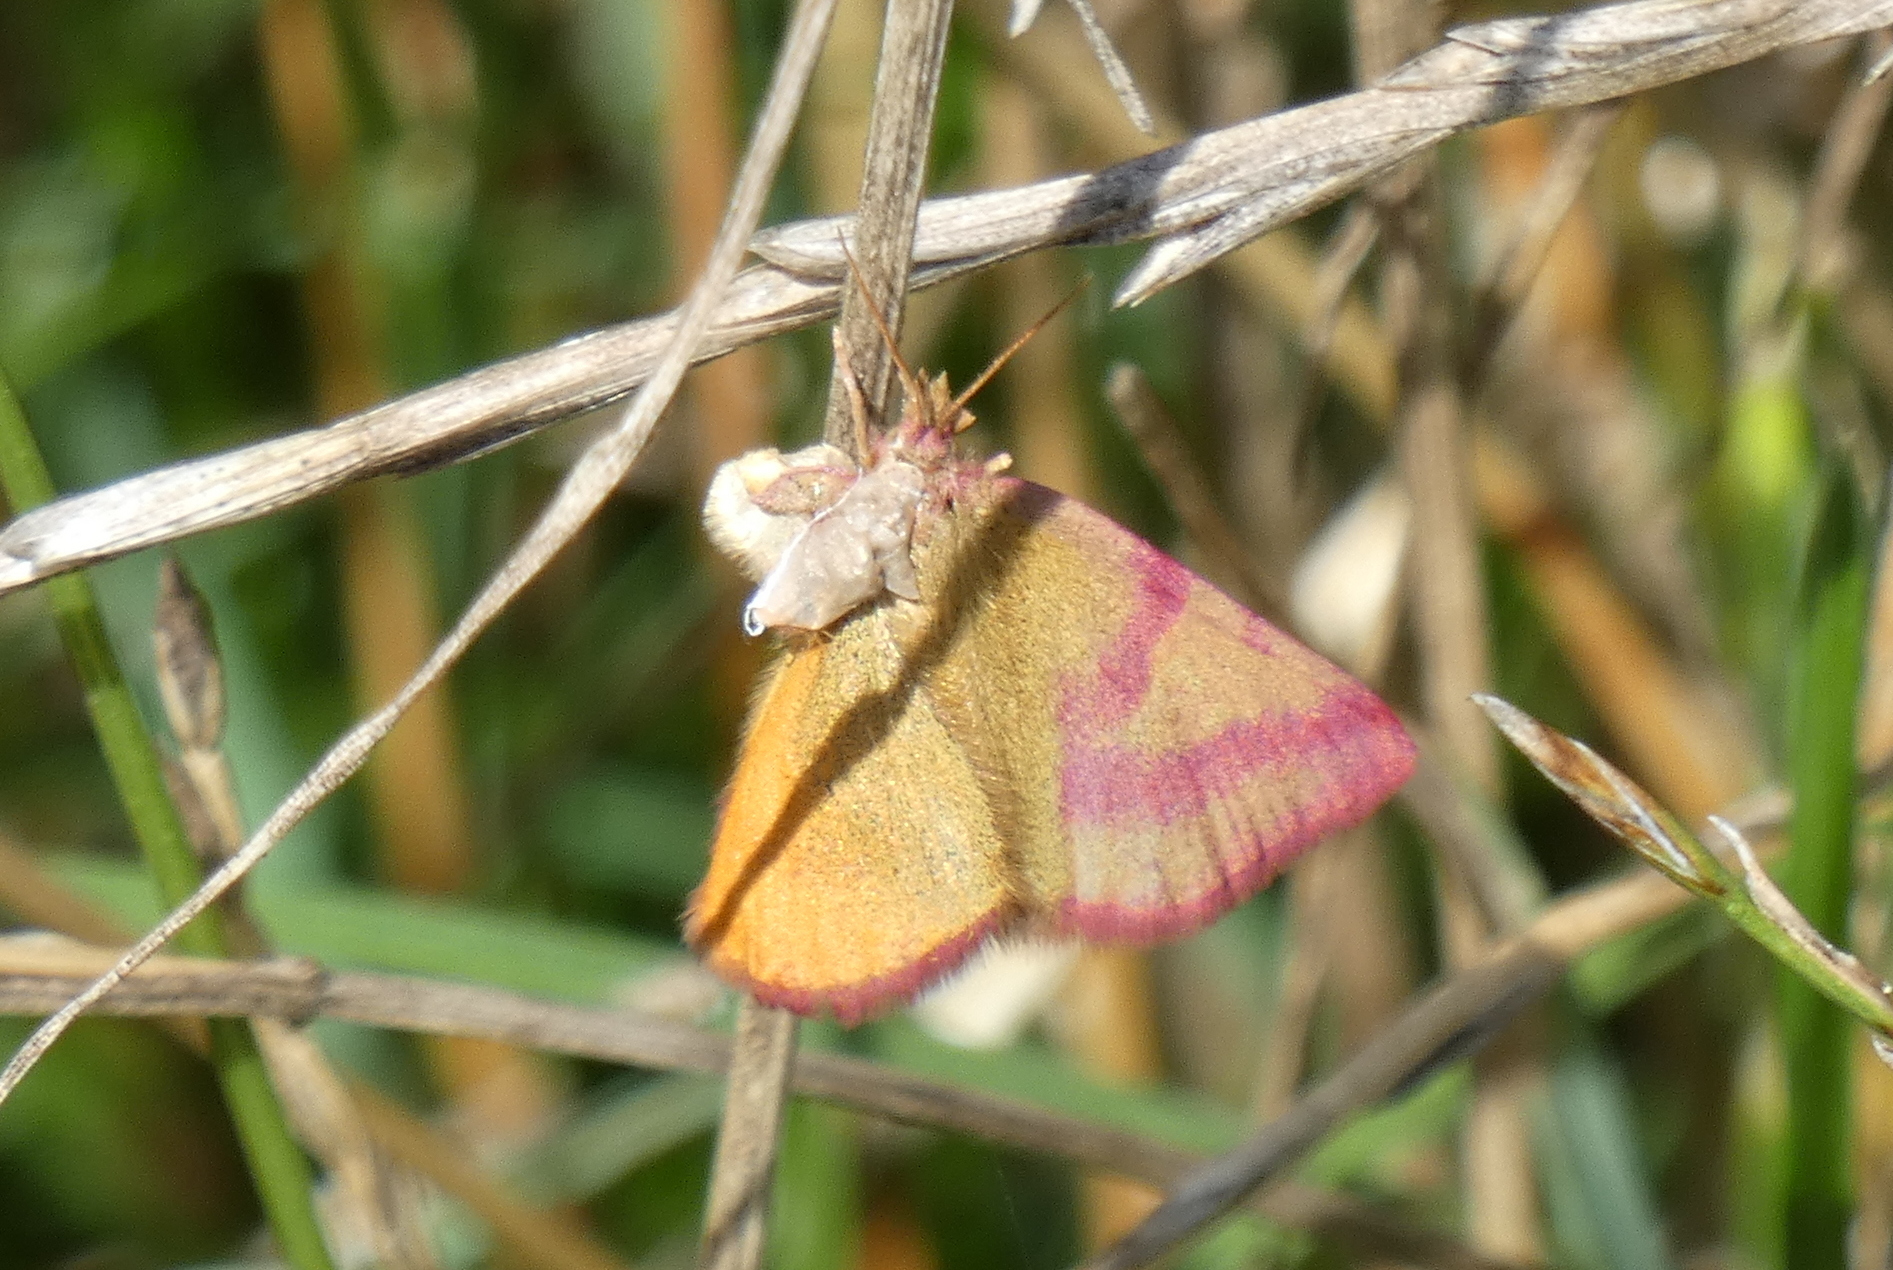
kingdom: Animalia
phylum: Arthropoda
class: Insecta
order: Lepidoptera
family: Geometridae
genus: Lythria
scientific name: Lythria purpuraria
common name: Purple-barred yellow
